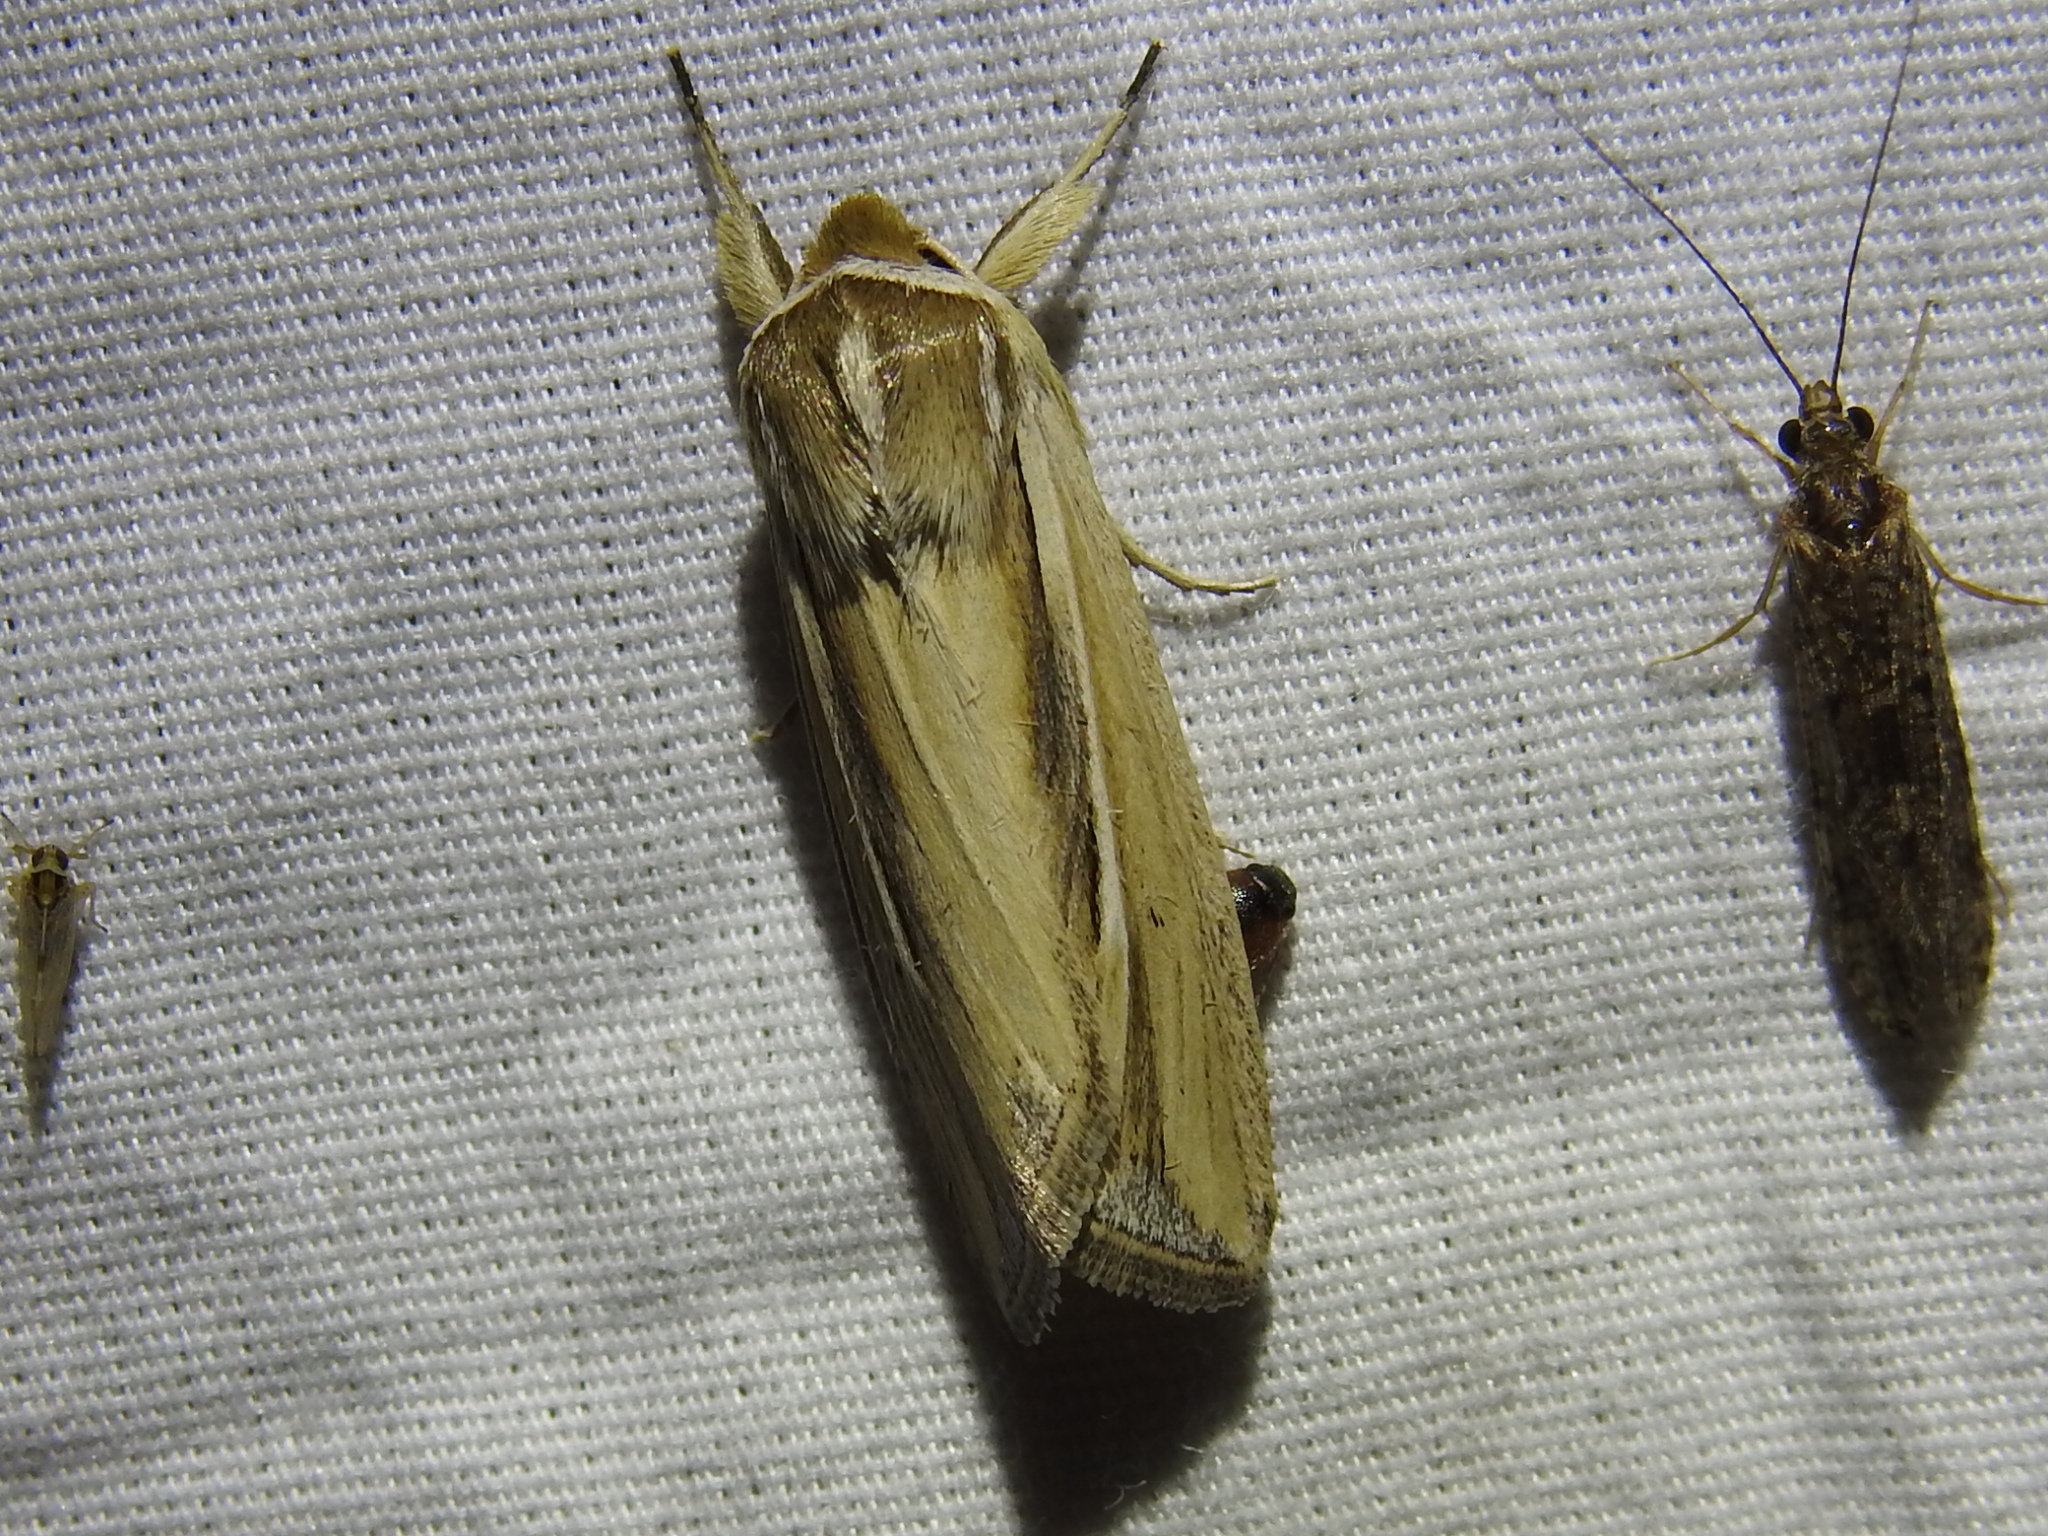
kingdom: Animalia
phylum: Arthropoda
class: Insecta
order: Lepidoptera
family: Noctuidae
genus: Dargida
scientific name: Dargida diffusa
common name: Wheat head armyworm
